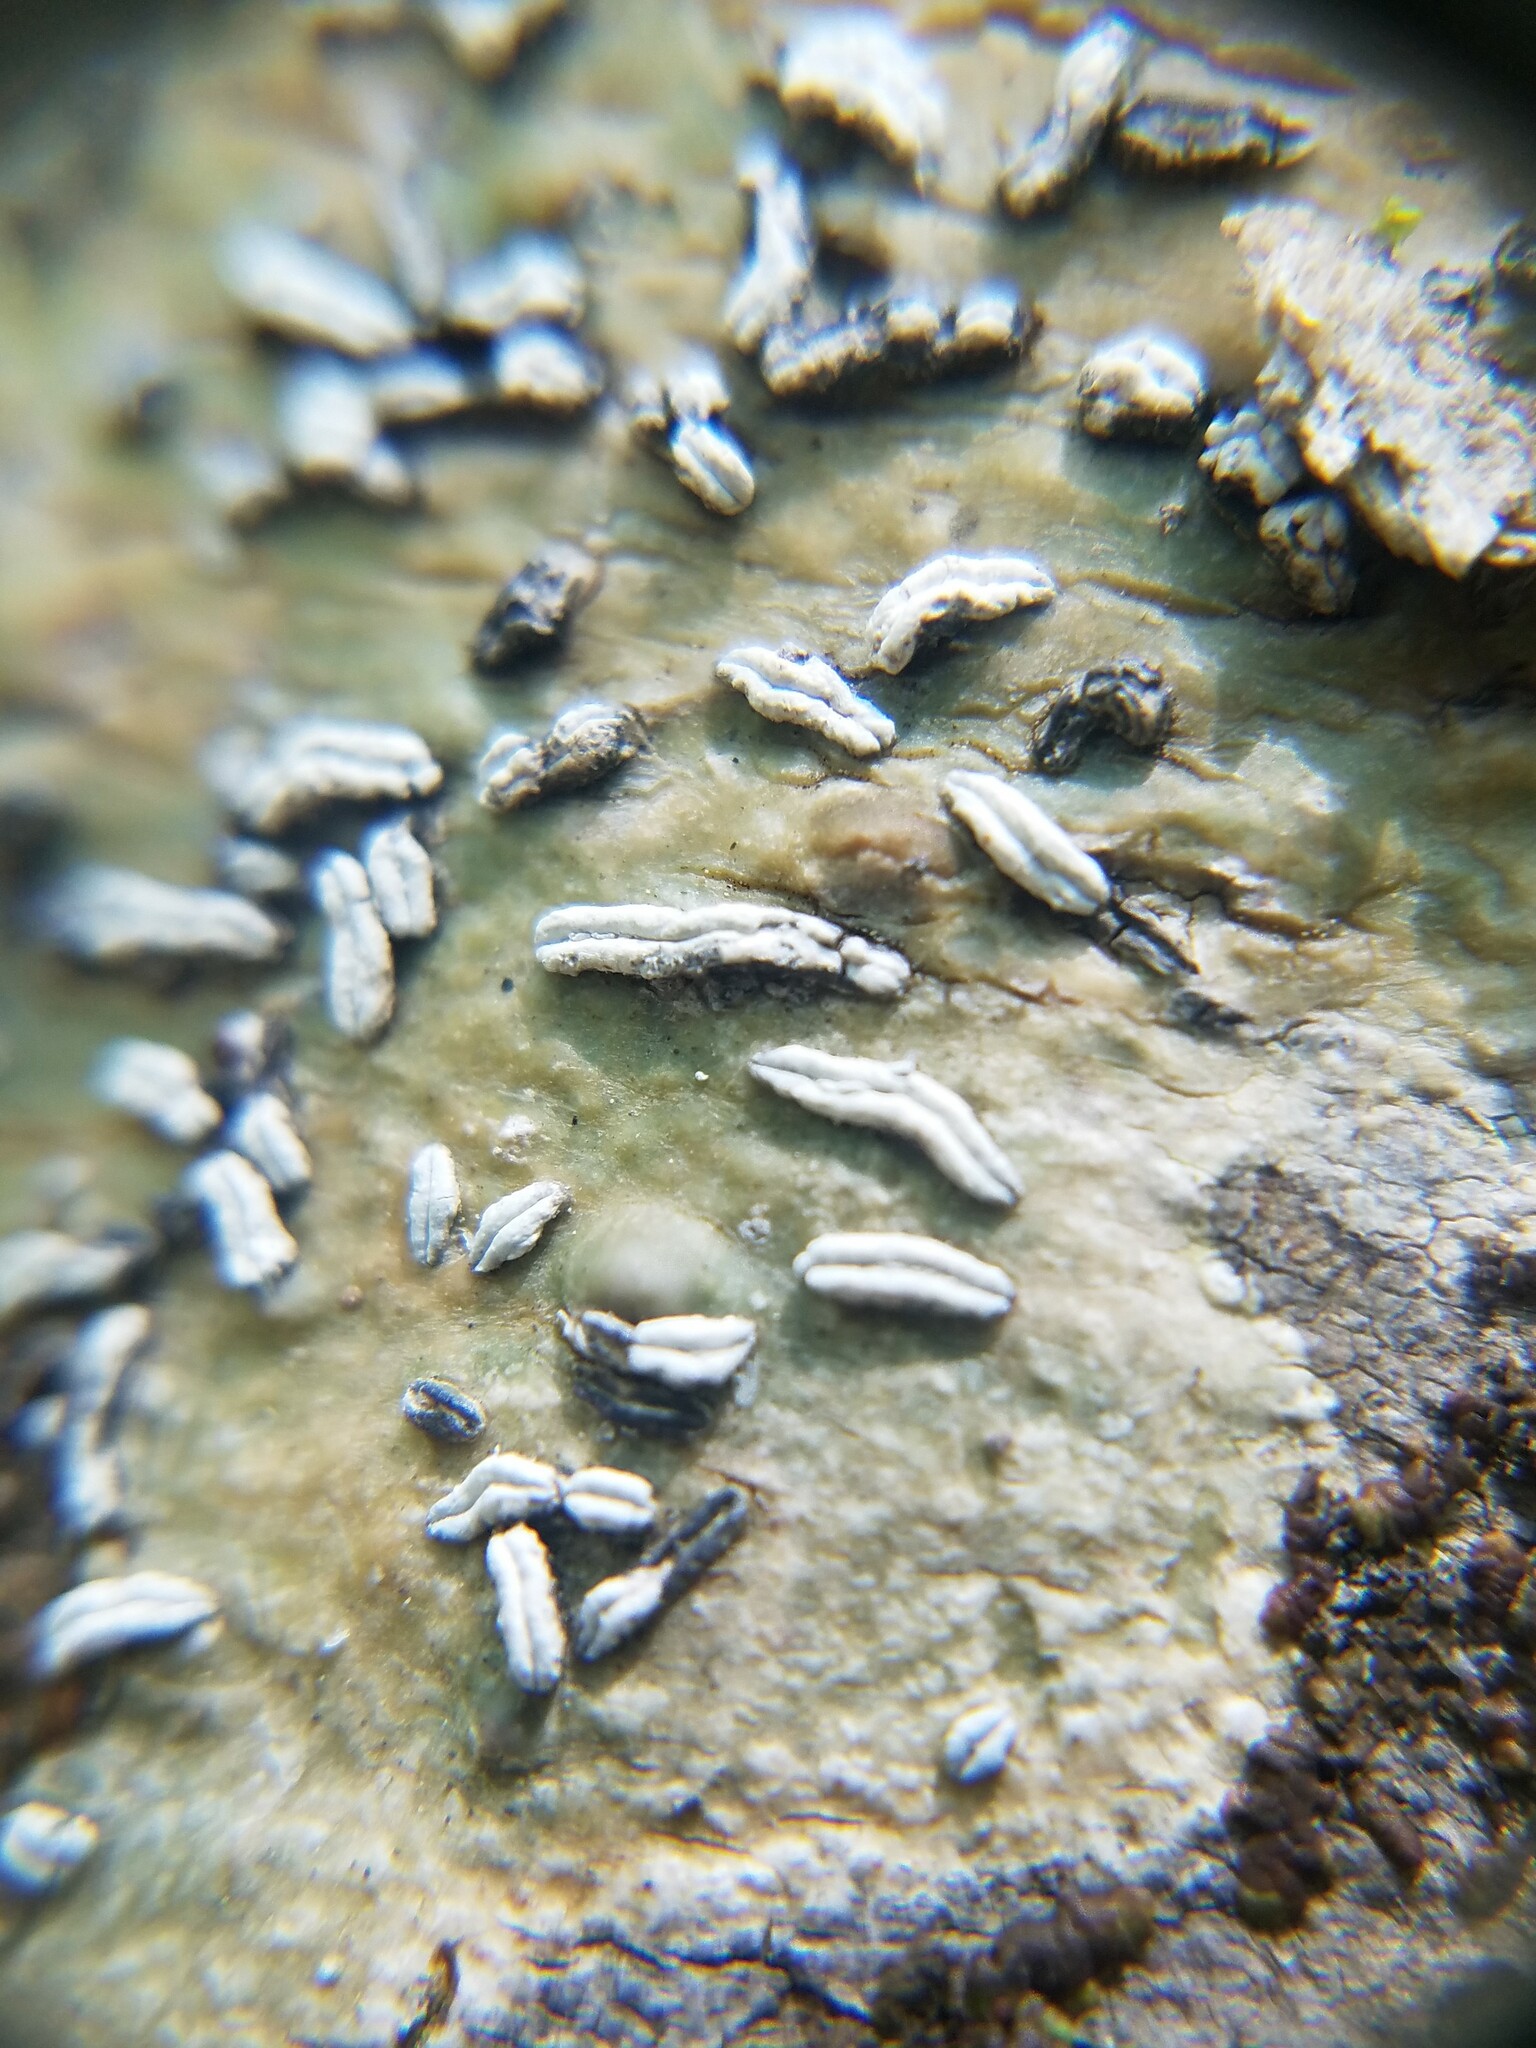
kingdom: Fungi
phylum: Ascomycota
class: Lecanoromycetes
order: Ostropales
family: Graphidaceae
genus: Dyplolabia
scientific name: Dyplolabia afzelii
